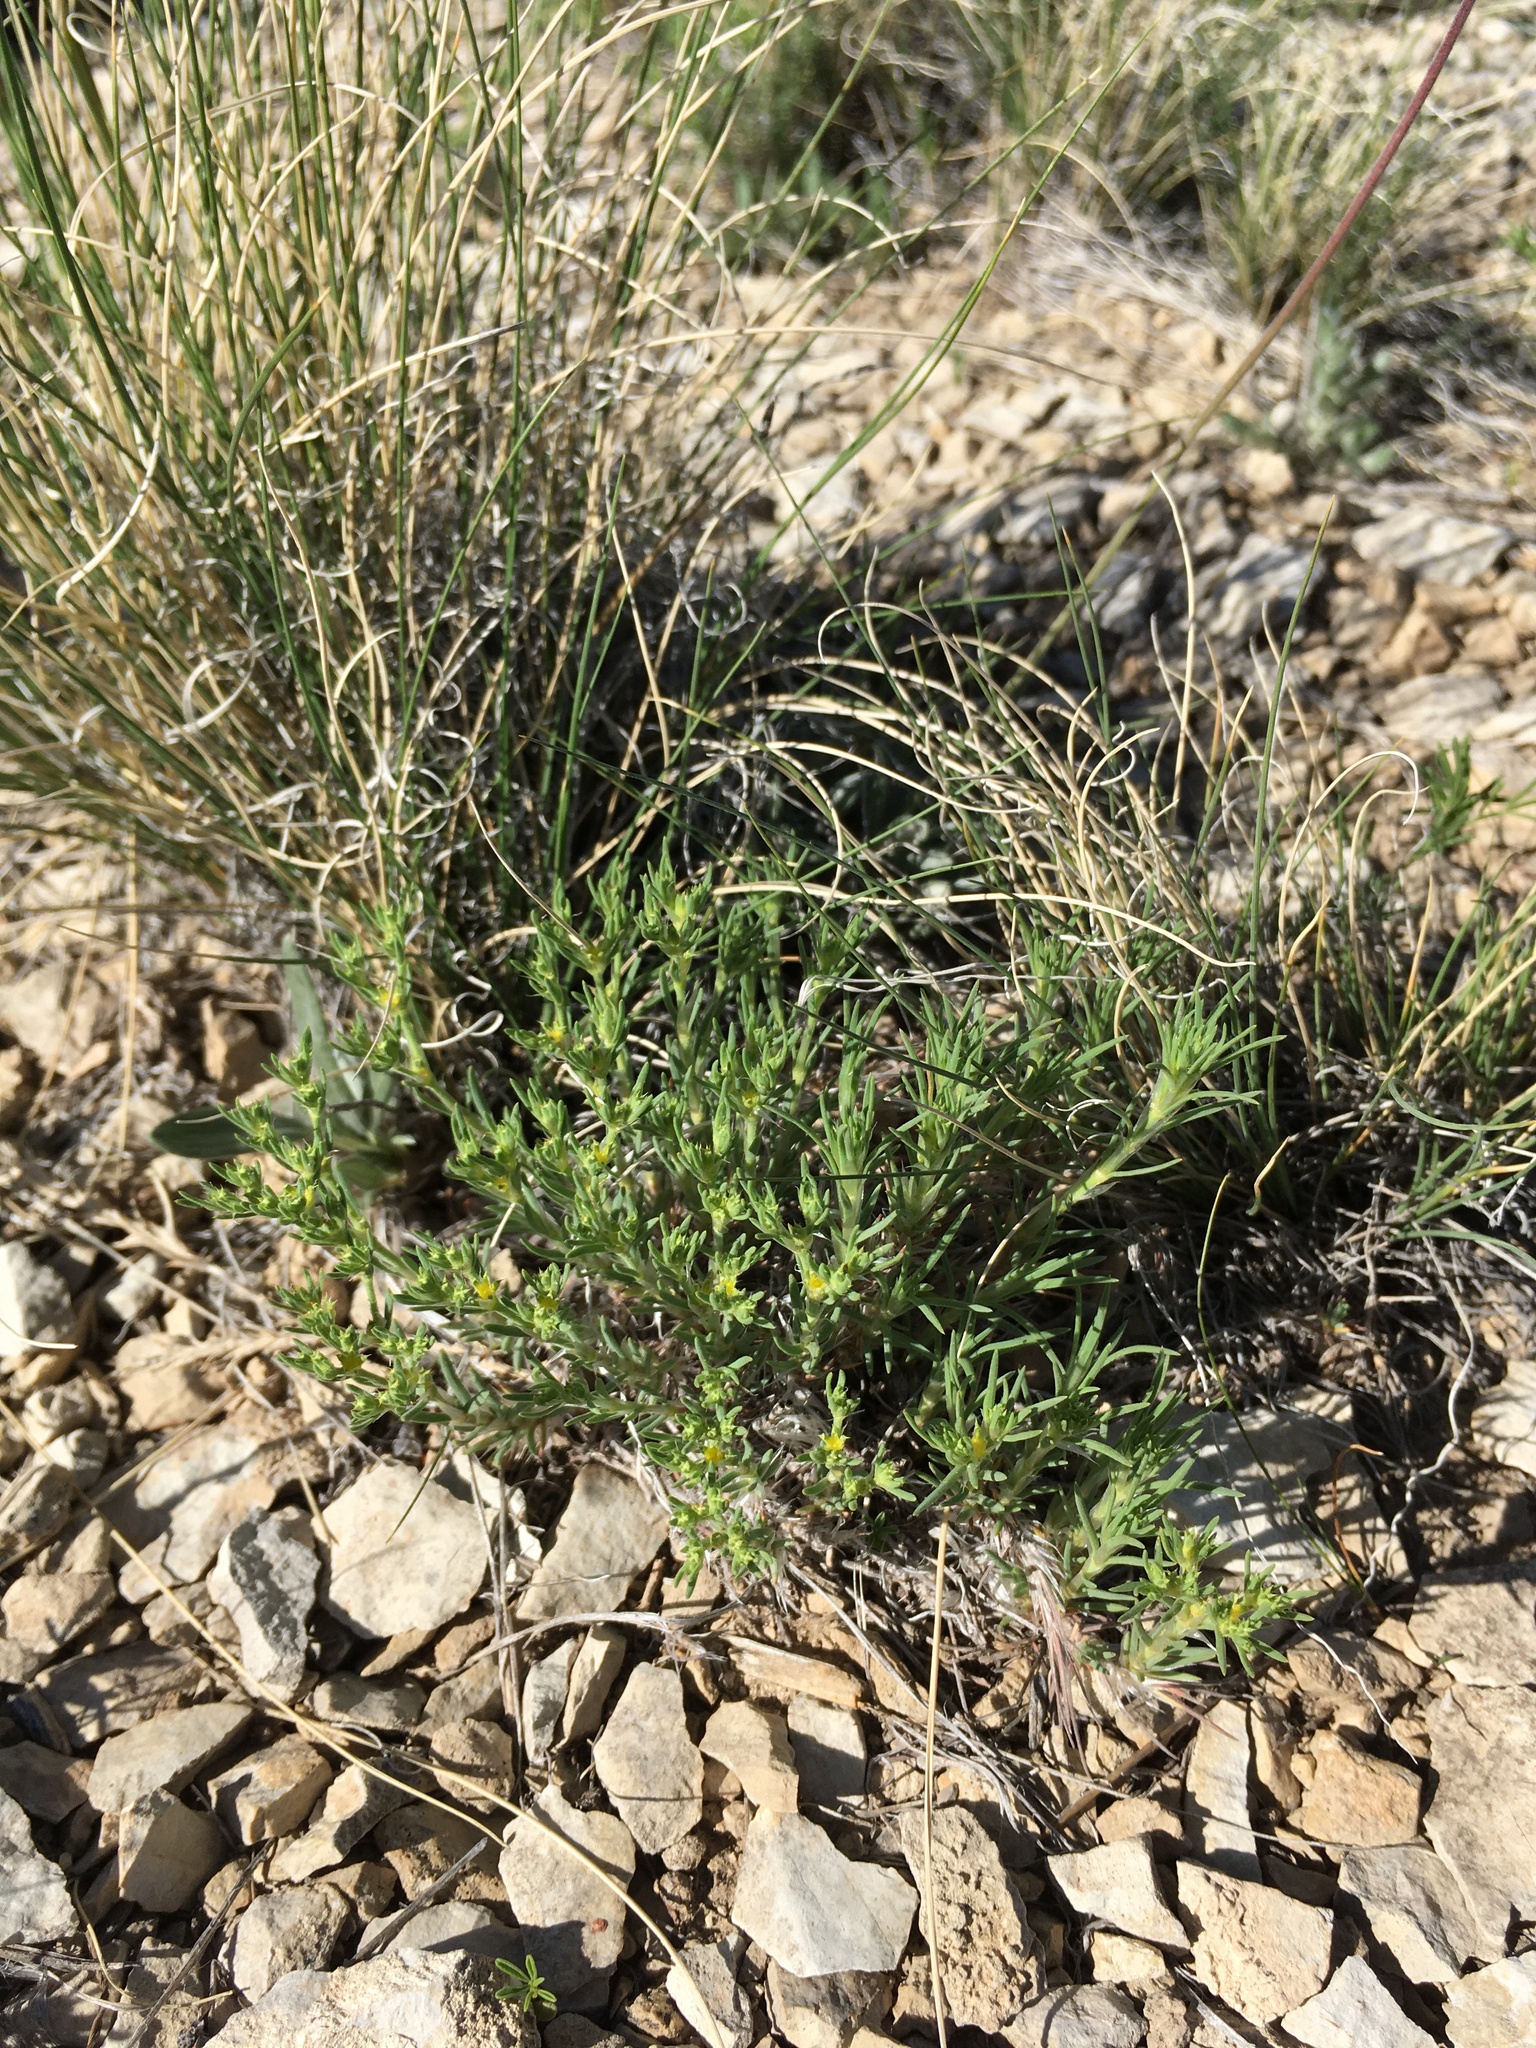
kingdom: Plantae
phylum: Tracheophyta
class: Magnoliopsida
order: Caryophyllales
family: Caryophyllaceae
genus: Paronychia
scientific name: Paronychia jamesii
